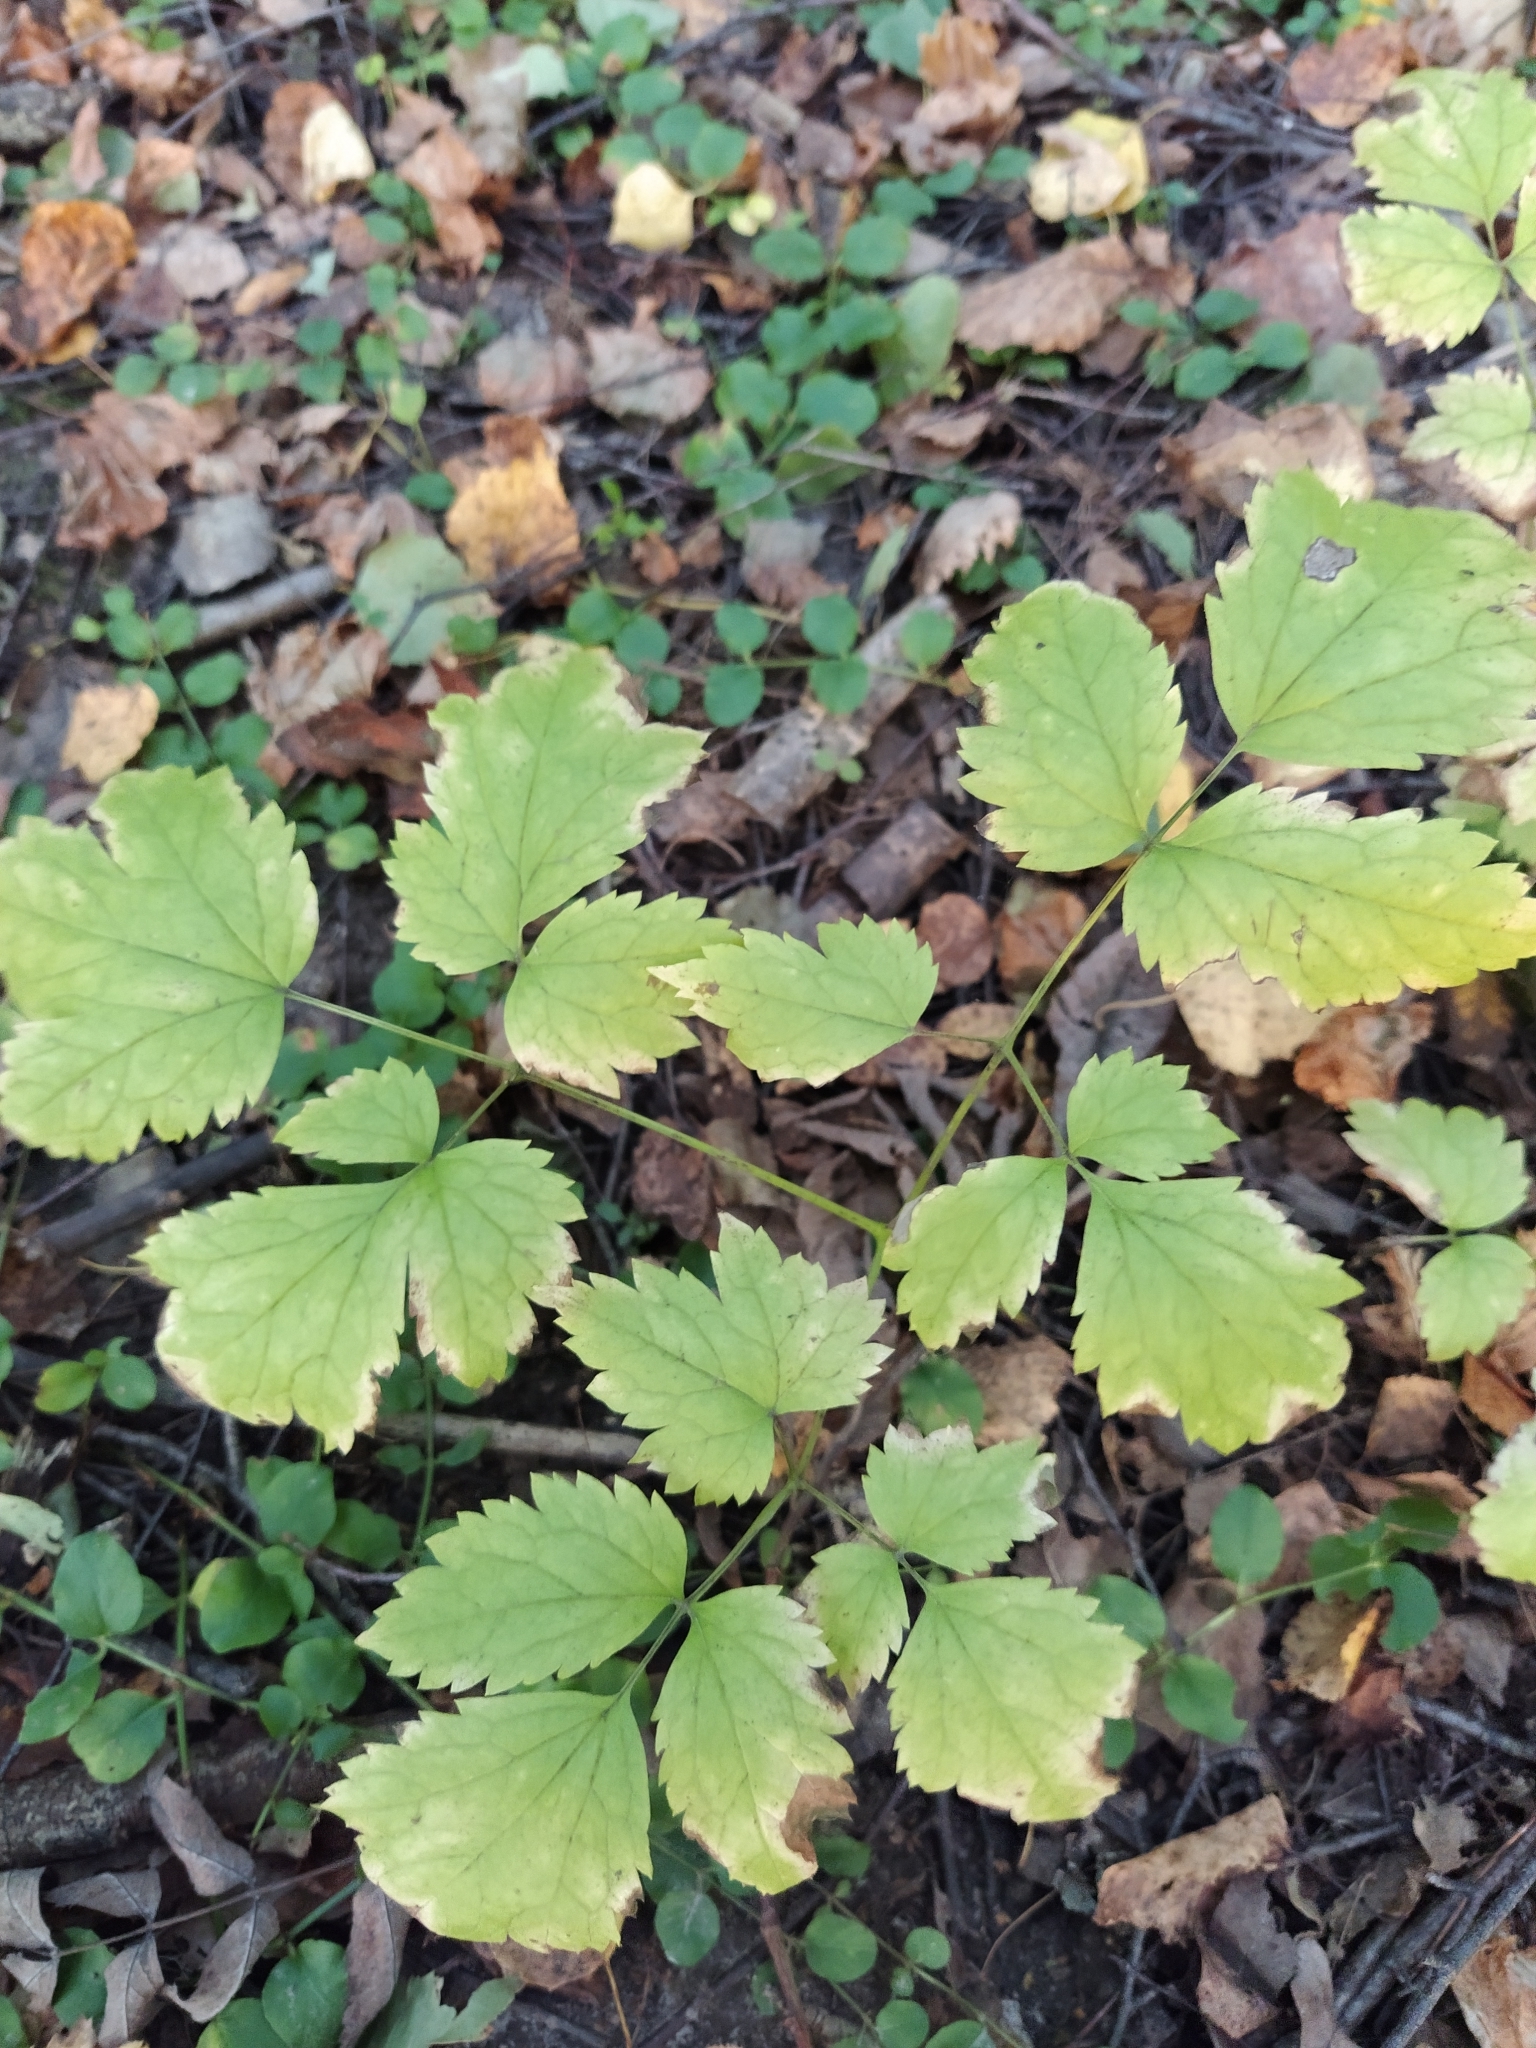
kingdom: Plantae
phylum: Tracheophyta
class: Magnoliopsida
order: Ranunculales
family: Ranunculaceae
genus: Actaea
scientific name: Actaea spicata
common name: Baneberry
